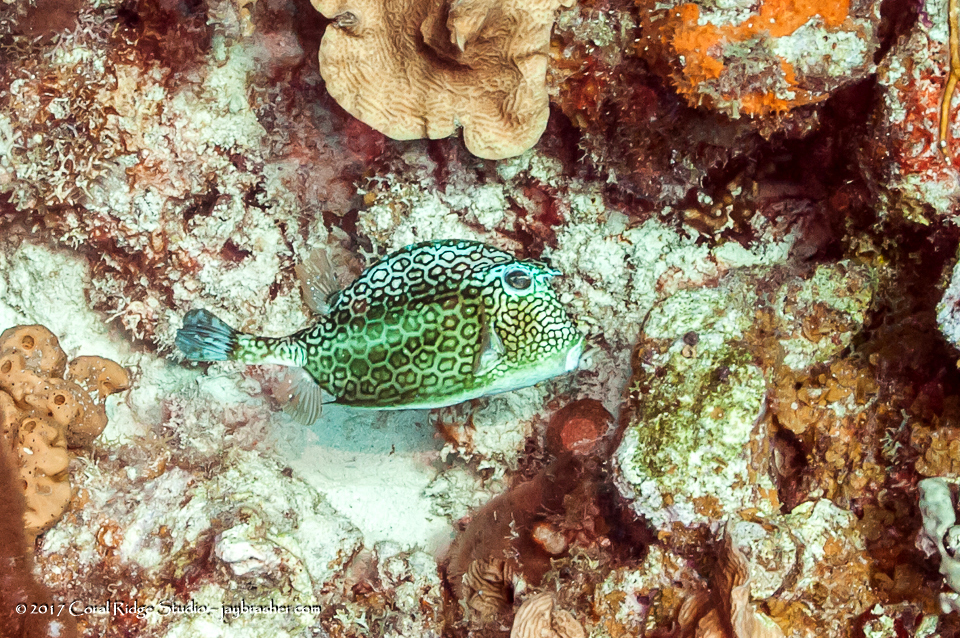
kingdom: Animalia
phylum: Chordata
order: Tetraodontiformes
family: Ostraciidae
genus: Acanthostracion
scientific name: Acanthostracion polygonius
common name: Honeycomb cowfish
